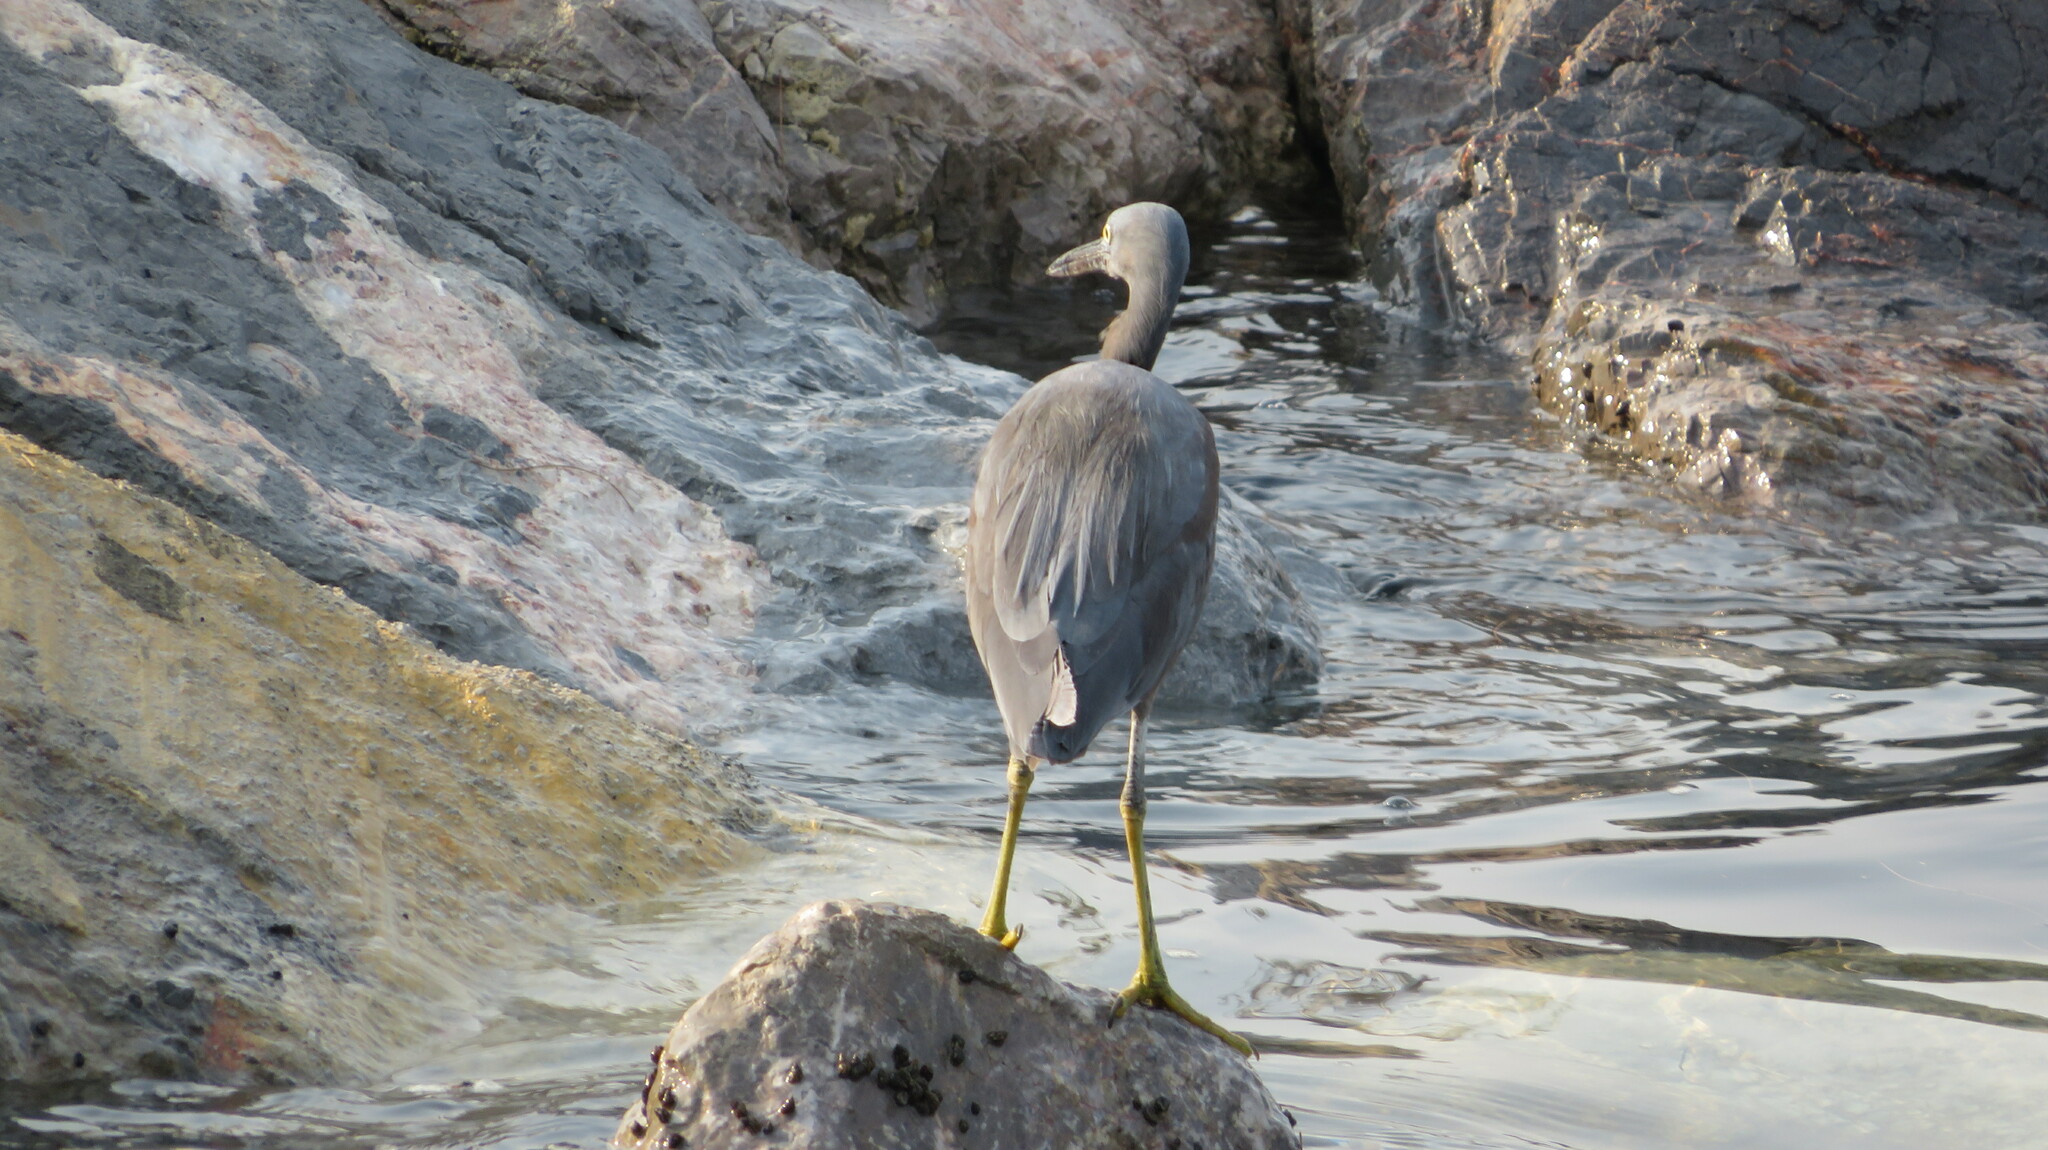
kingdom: Animalia
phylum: Chordata
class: Aves
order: Pelecaniformes
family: Ardeidae
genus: Egretta
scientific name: Egretta sacra
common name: Pacific reef heron
